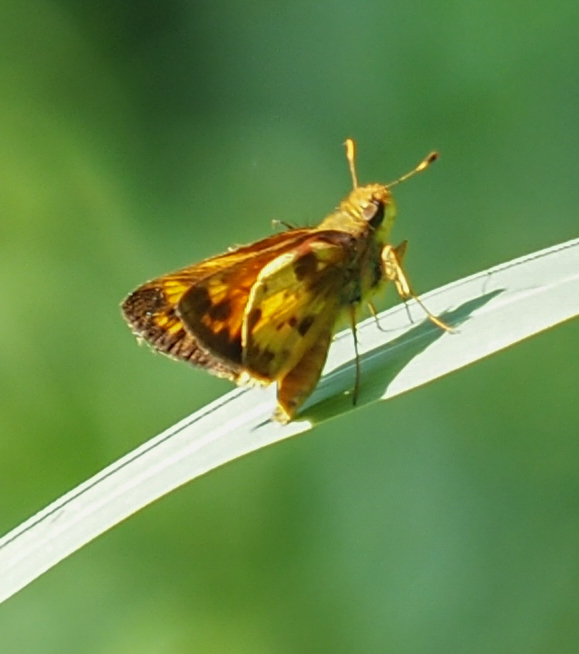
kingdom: Animalia
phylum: Arthropoda
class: Insecta
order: Lepidoptera
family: Hesperiidae
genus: Lon
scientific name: Lon zabulon
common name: Zabulon skipper
